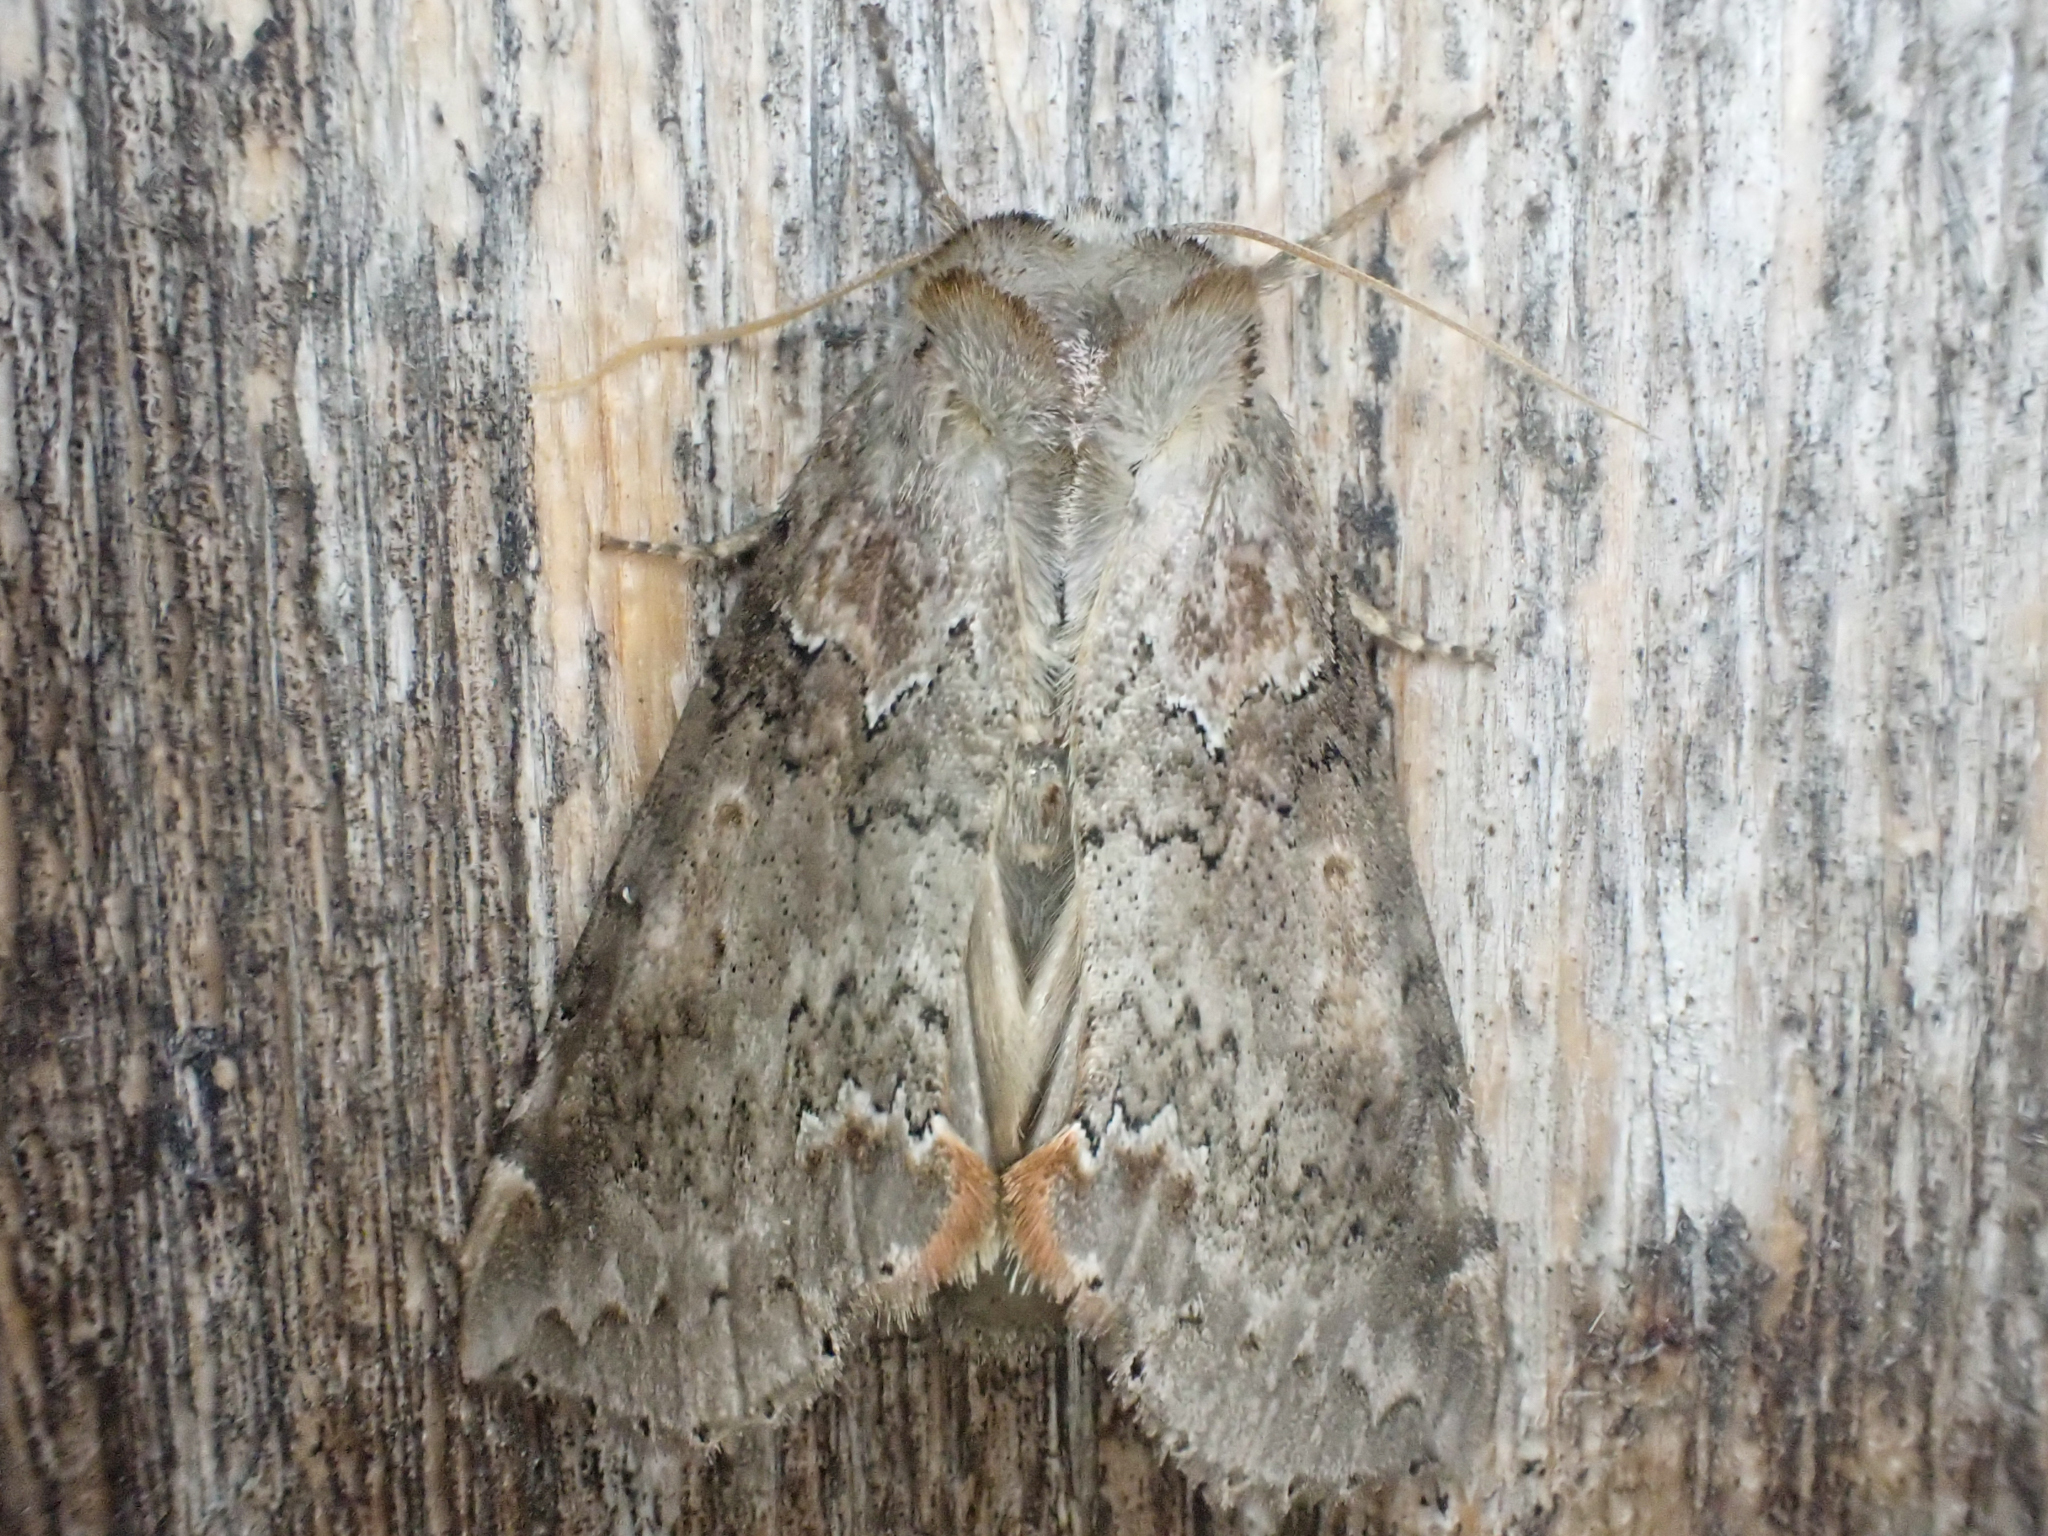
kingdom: Animalia
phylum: Arthropoda
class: Insecta
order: Lepidoptera
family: Drepanidae
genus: Pseudothyatira
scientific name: Pseudothyatira cymatophoroides
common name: Tufted thyatirid moth
